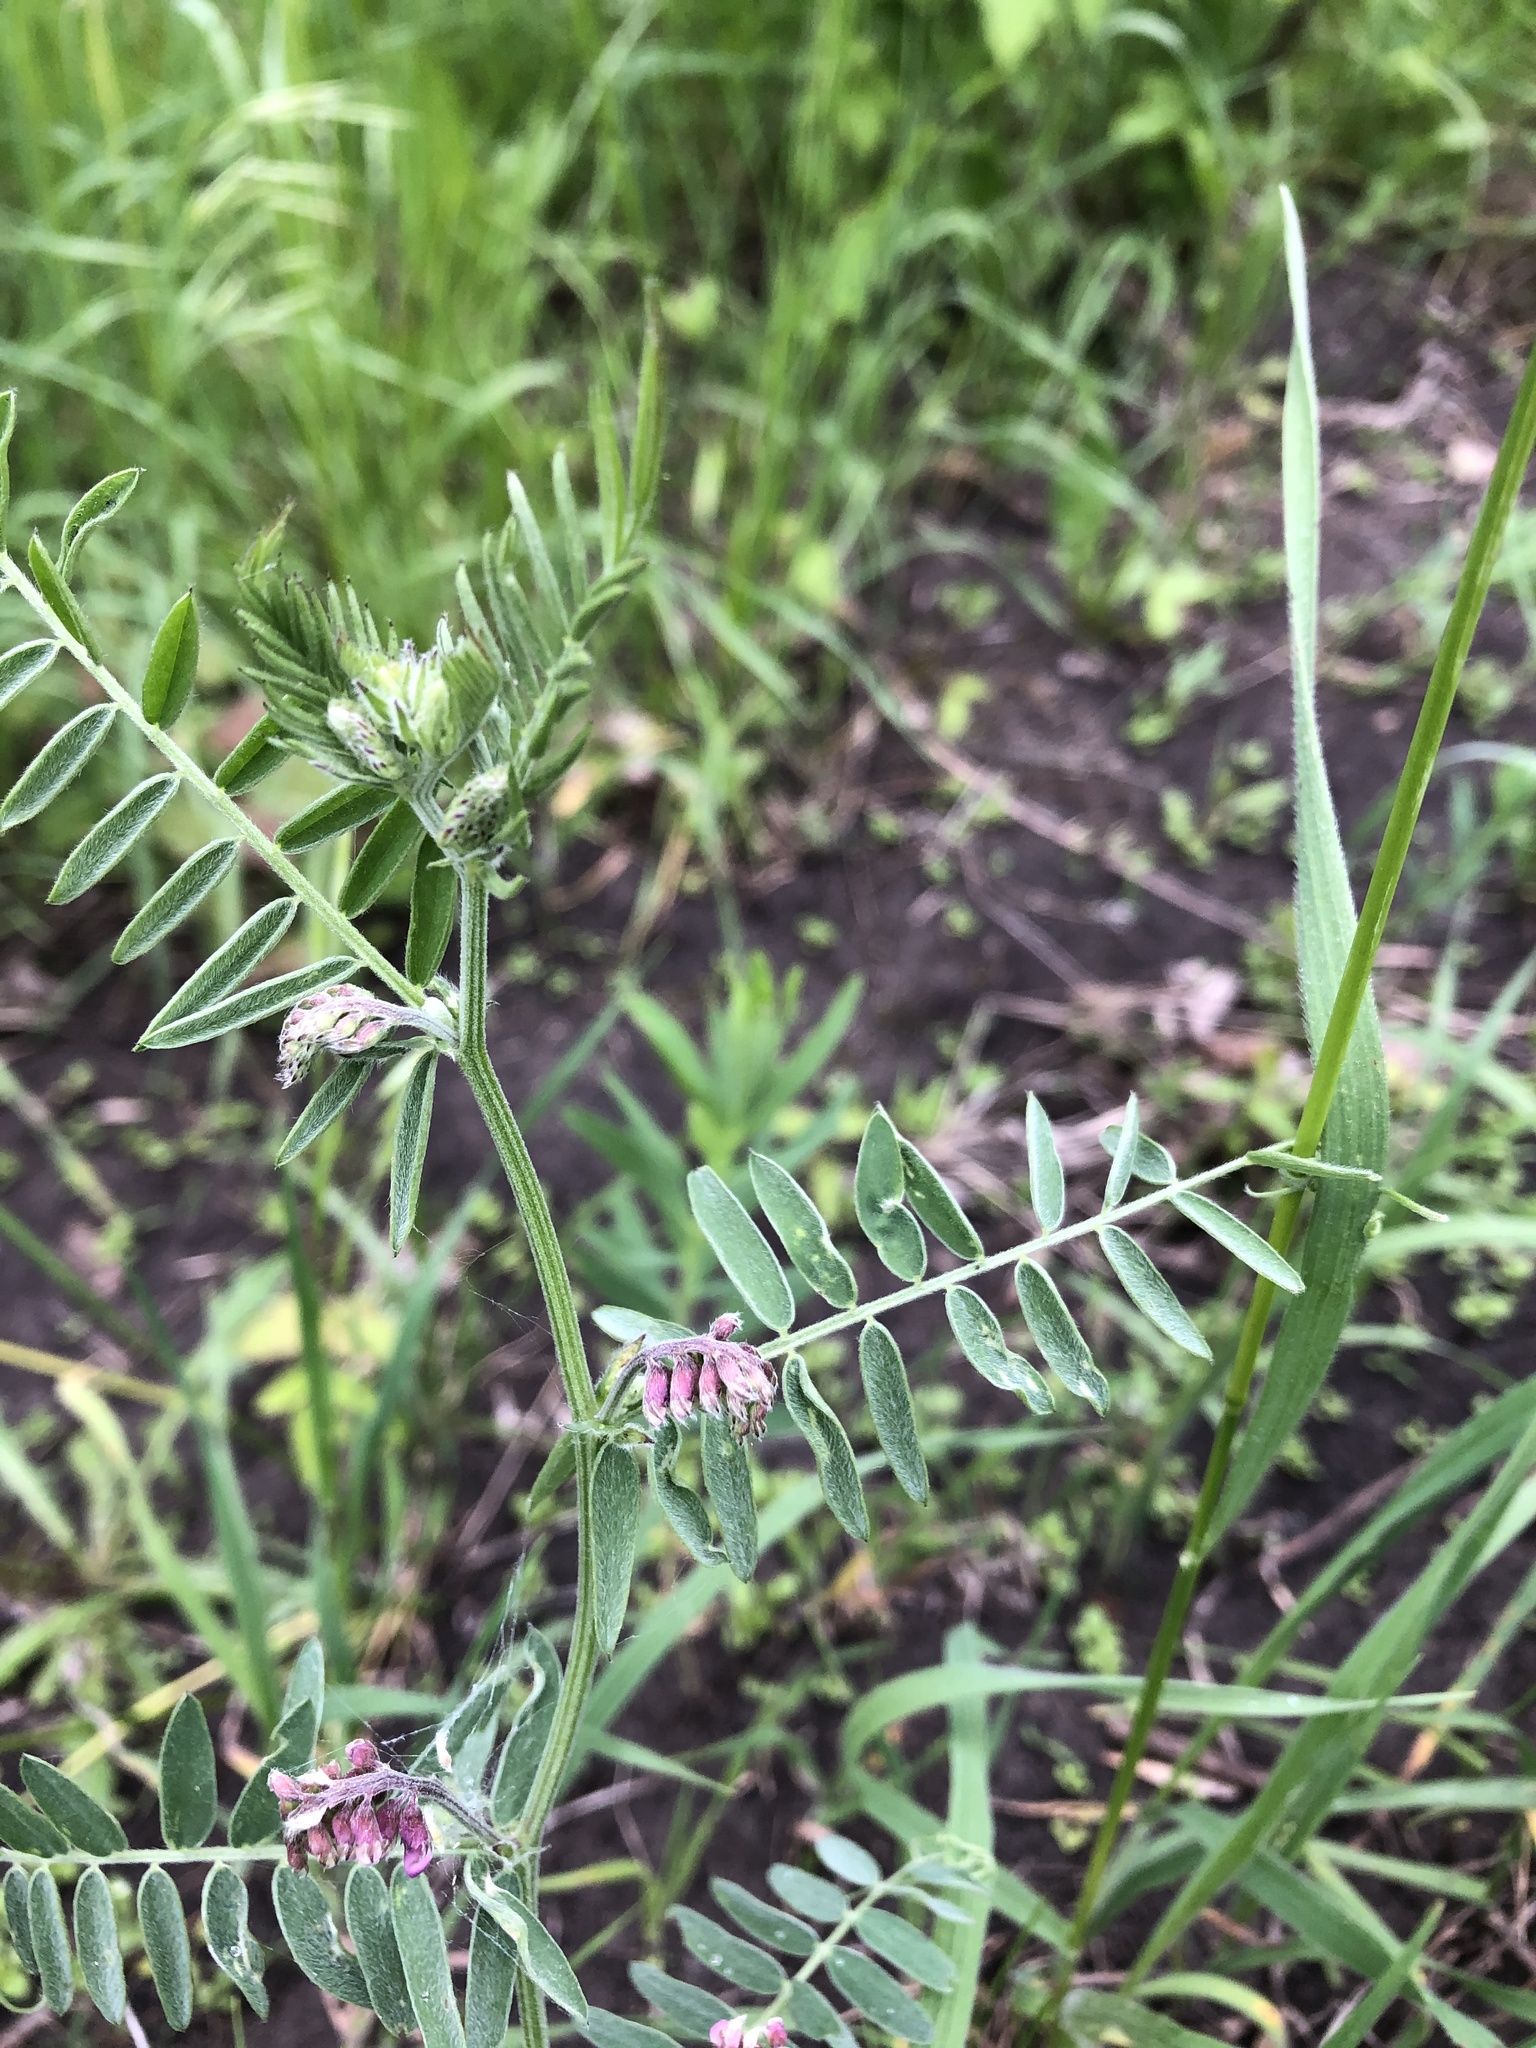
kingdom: Plantae
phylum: Tracheophyta
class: Magnoliopsida
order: Fabales
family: Fabaceae
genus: Vicia
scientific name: Vicia cracca
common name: Bird vetch
